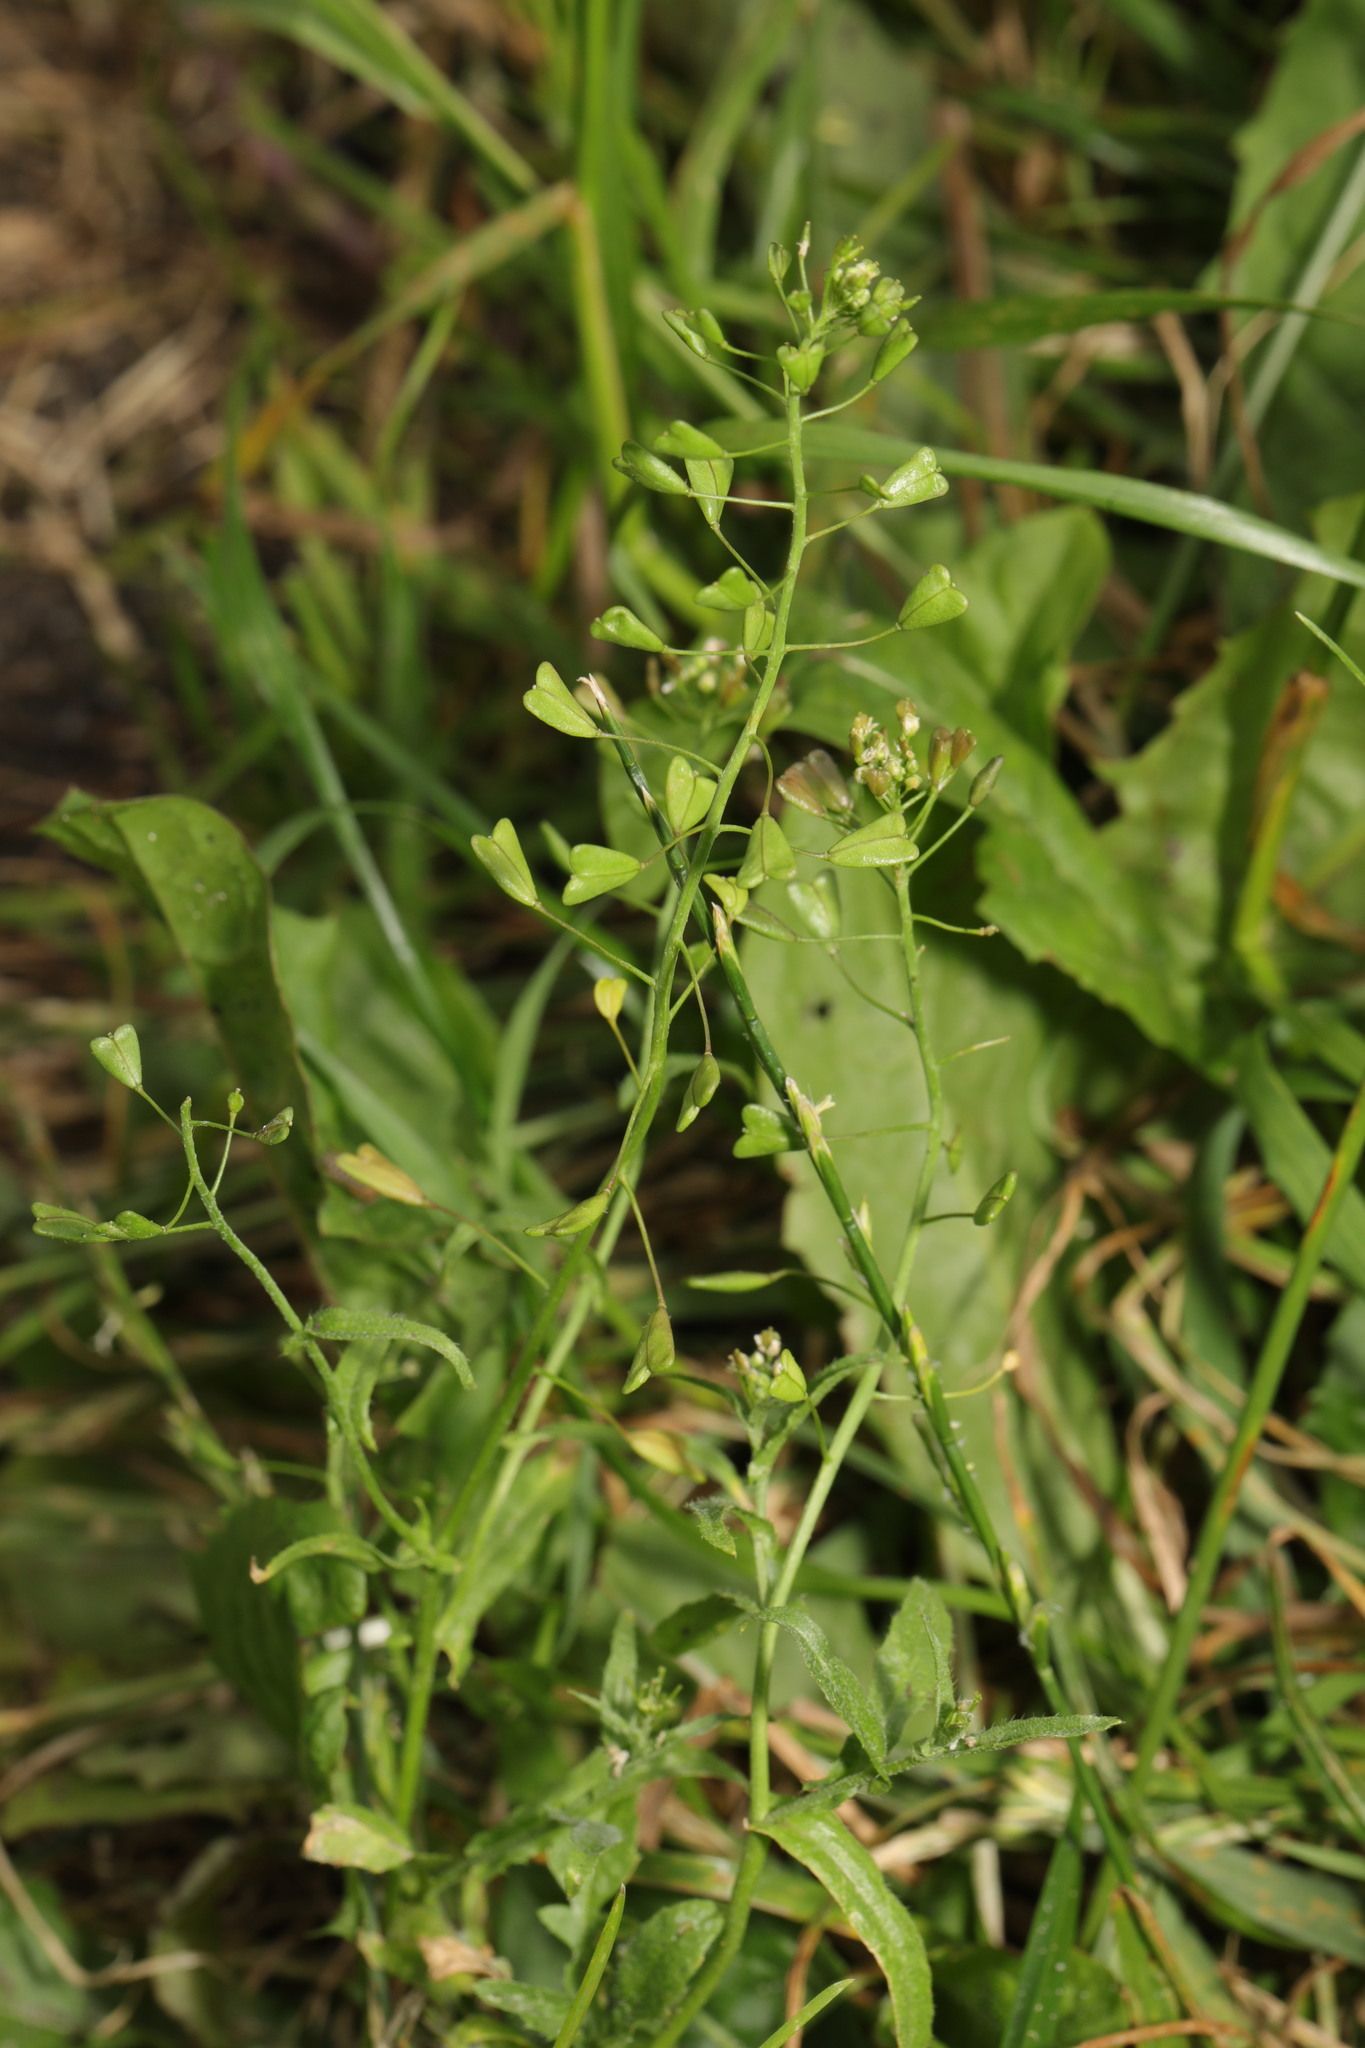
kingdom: Plantae
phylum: Tracheophyta
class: Magnoliopsida
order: Brassicales
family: Brassicaceae
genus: Capsella
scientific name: Capsella bursa-pastoris
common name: Shepherd's purse
